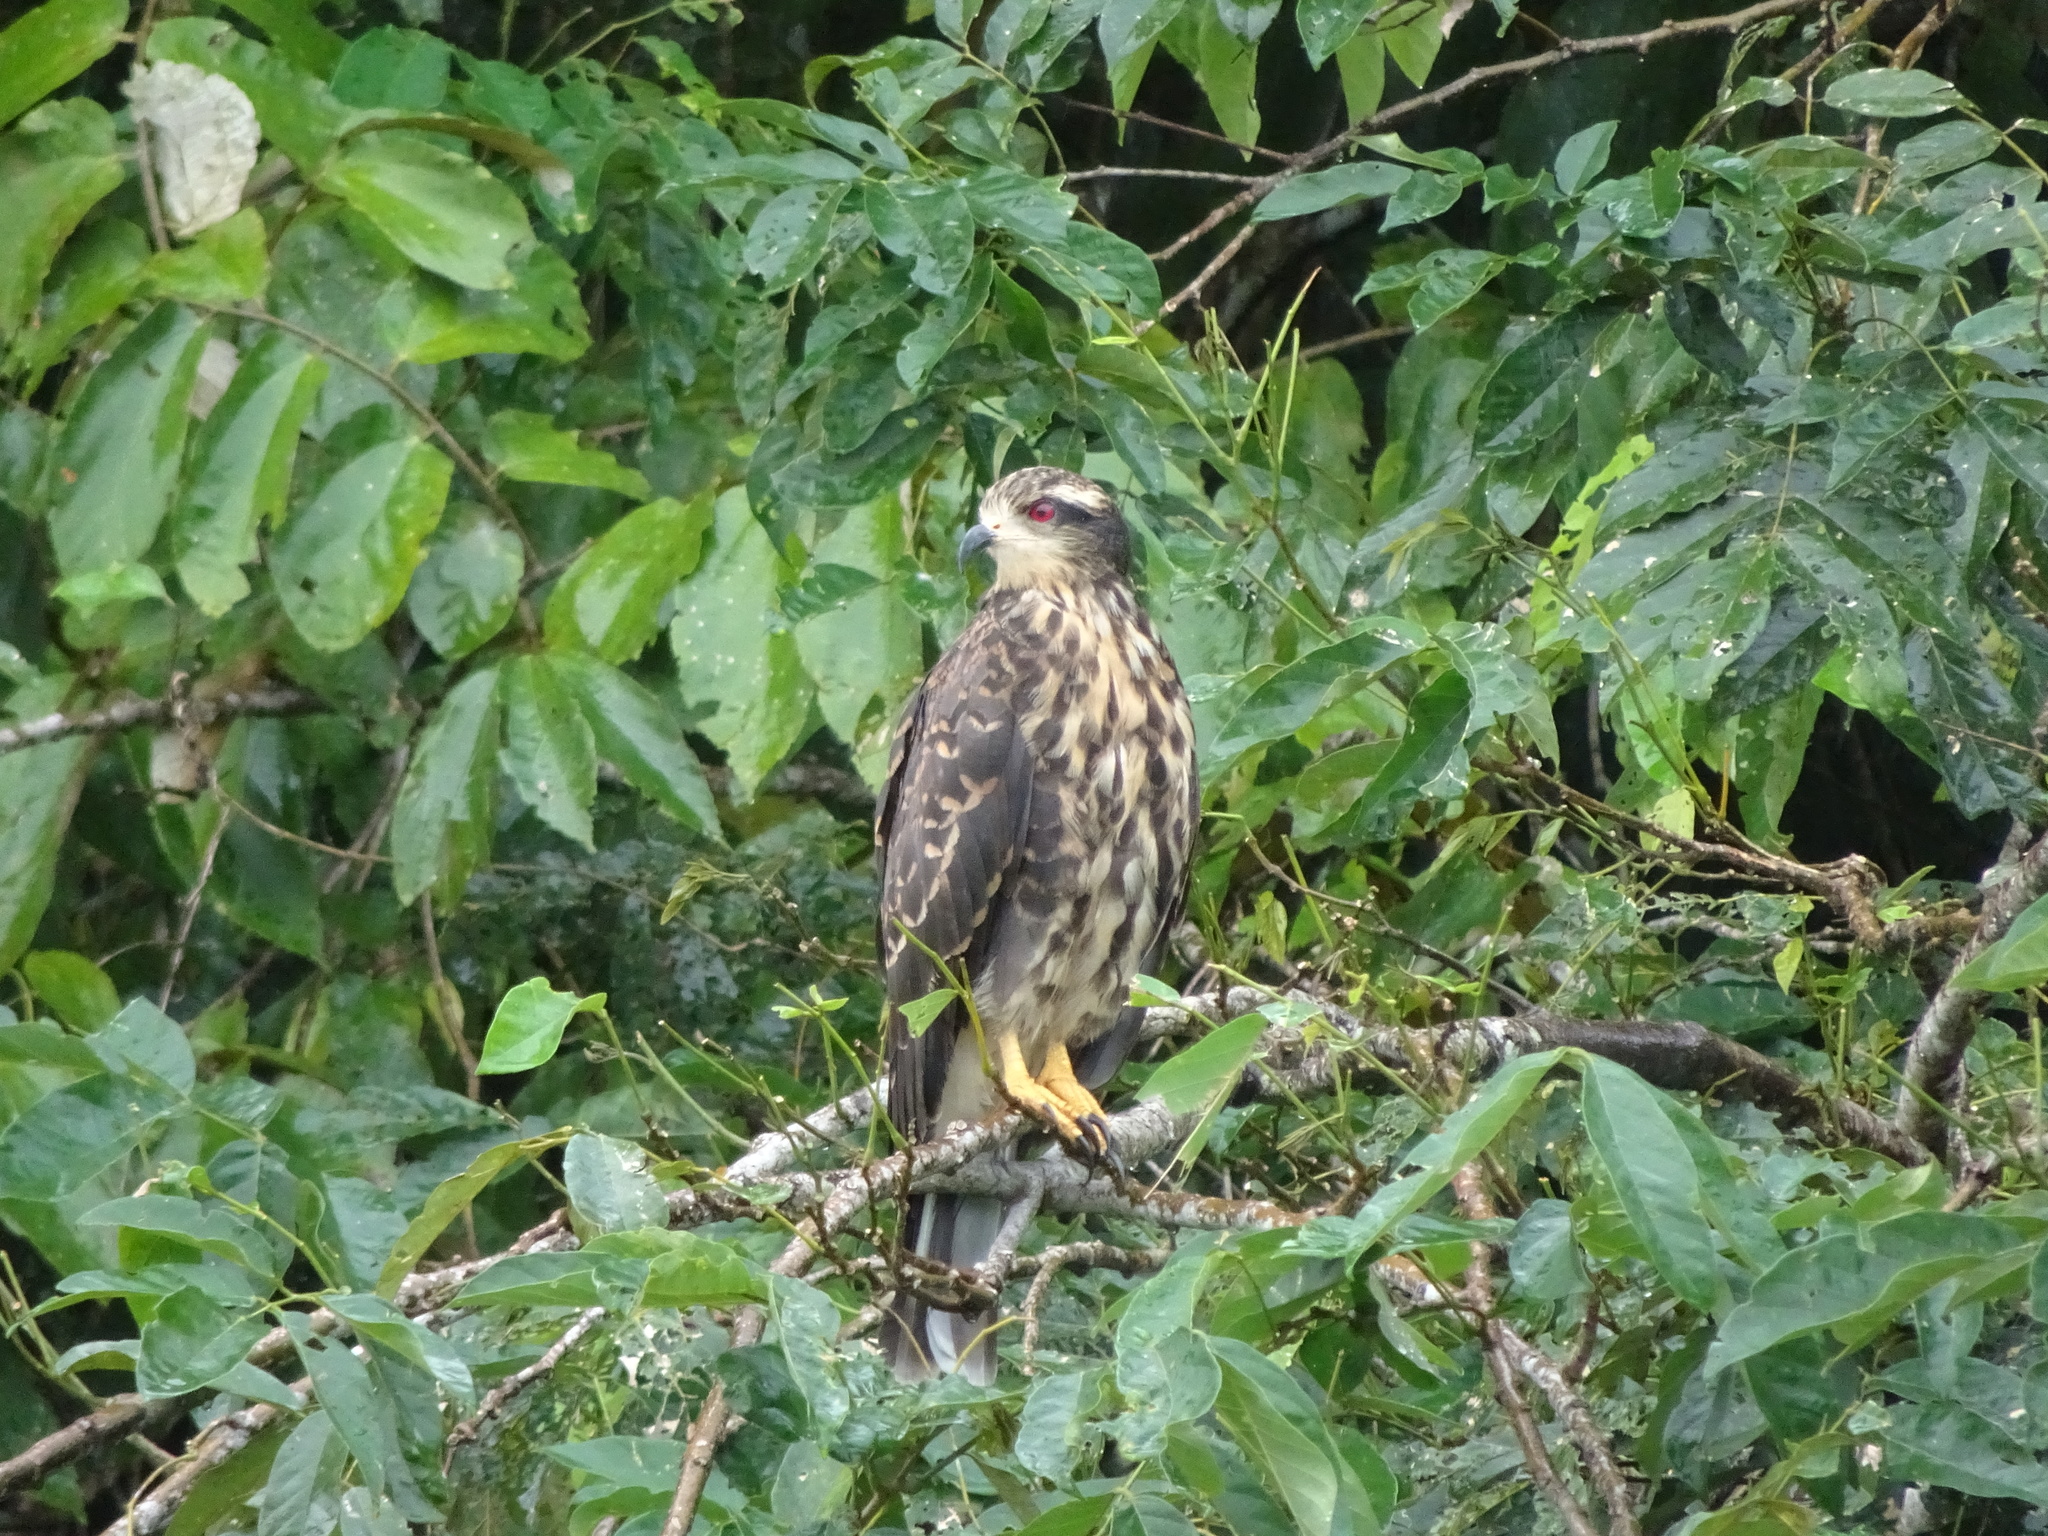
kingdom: Animalia
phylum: Chordata
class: Aves
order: Accipitriformes
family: Accipitridae
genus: Rostrhamus
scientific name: Rostrhamus sociabilis
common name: Snail kite
